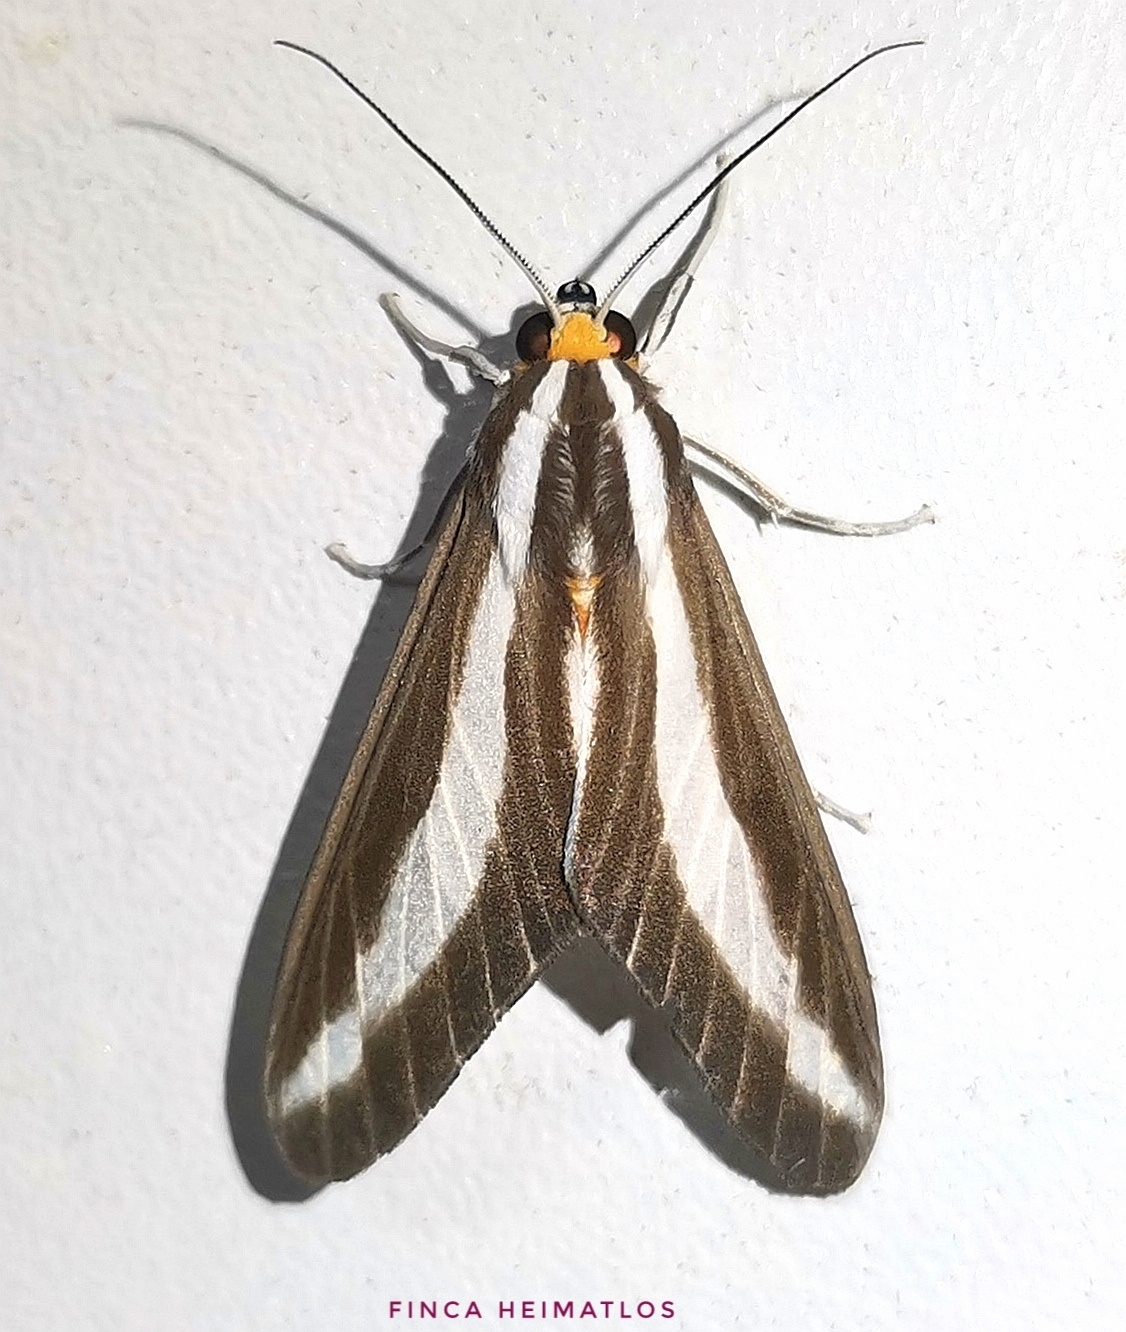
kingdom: Animalia
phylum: Arthropoda
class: Insecta
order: Lepidoptera
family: Erebidae
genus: Robinsonia
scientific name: Robinsonia klagesi
